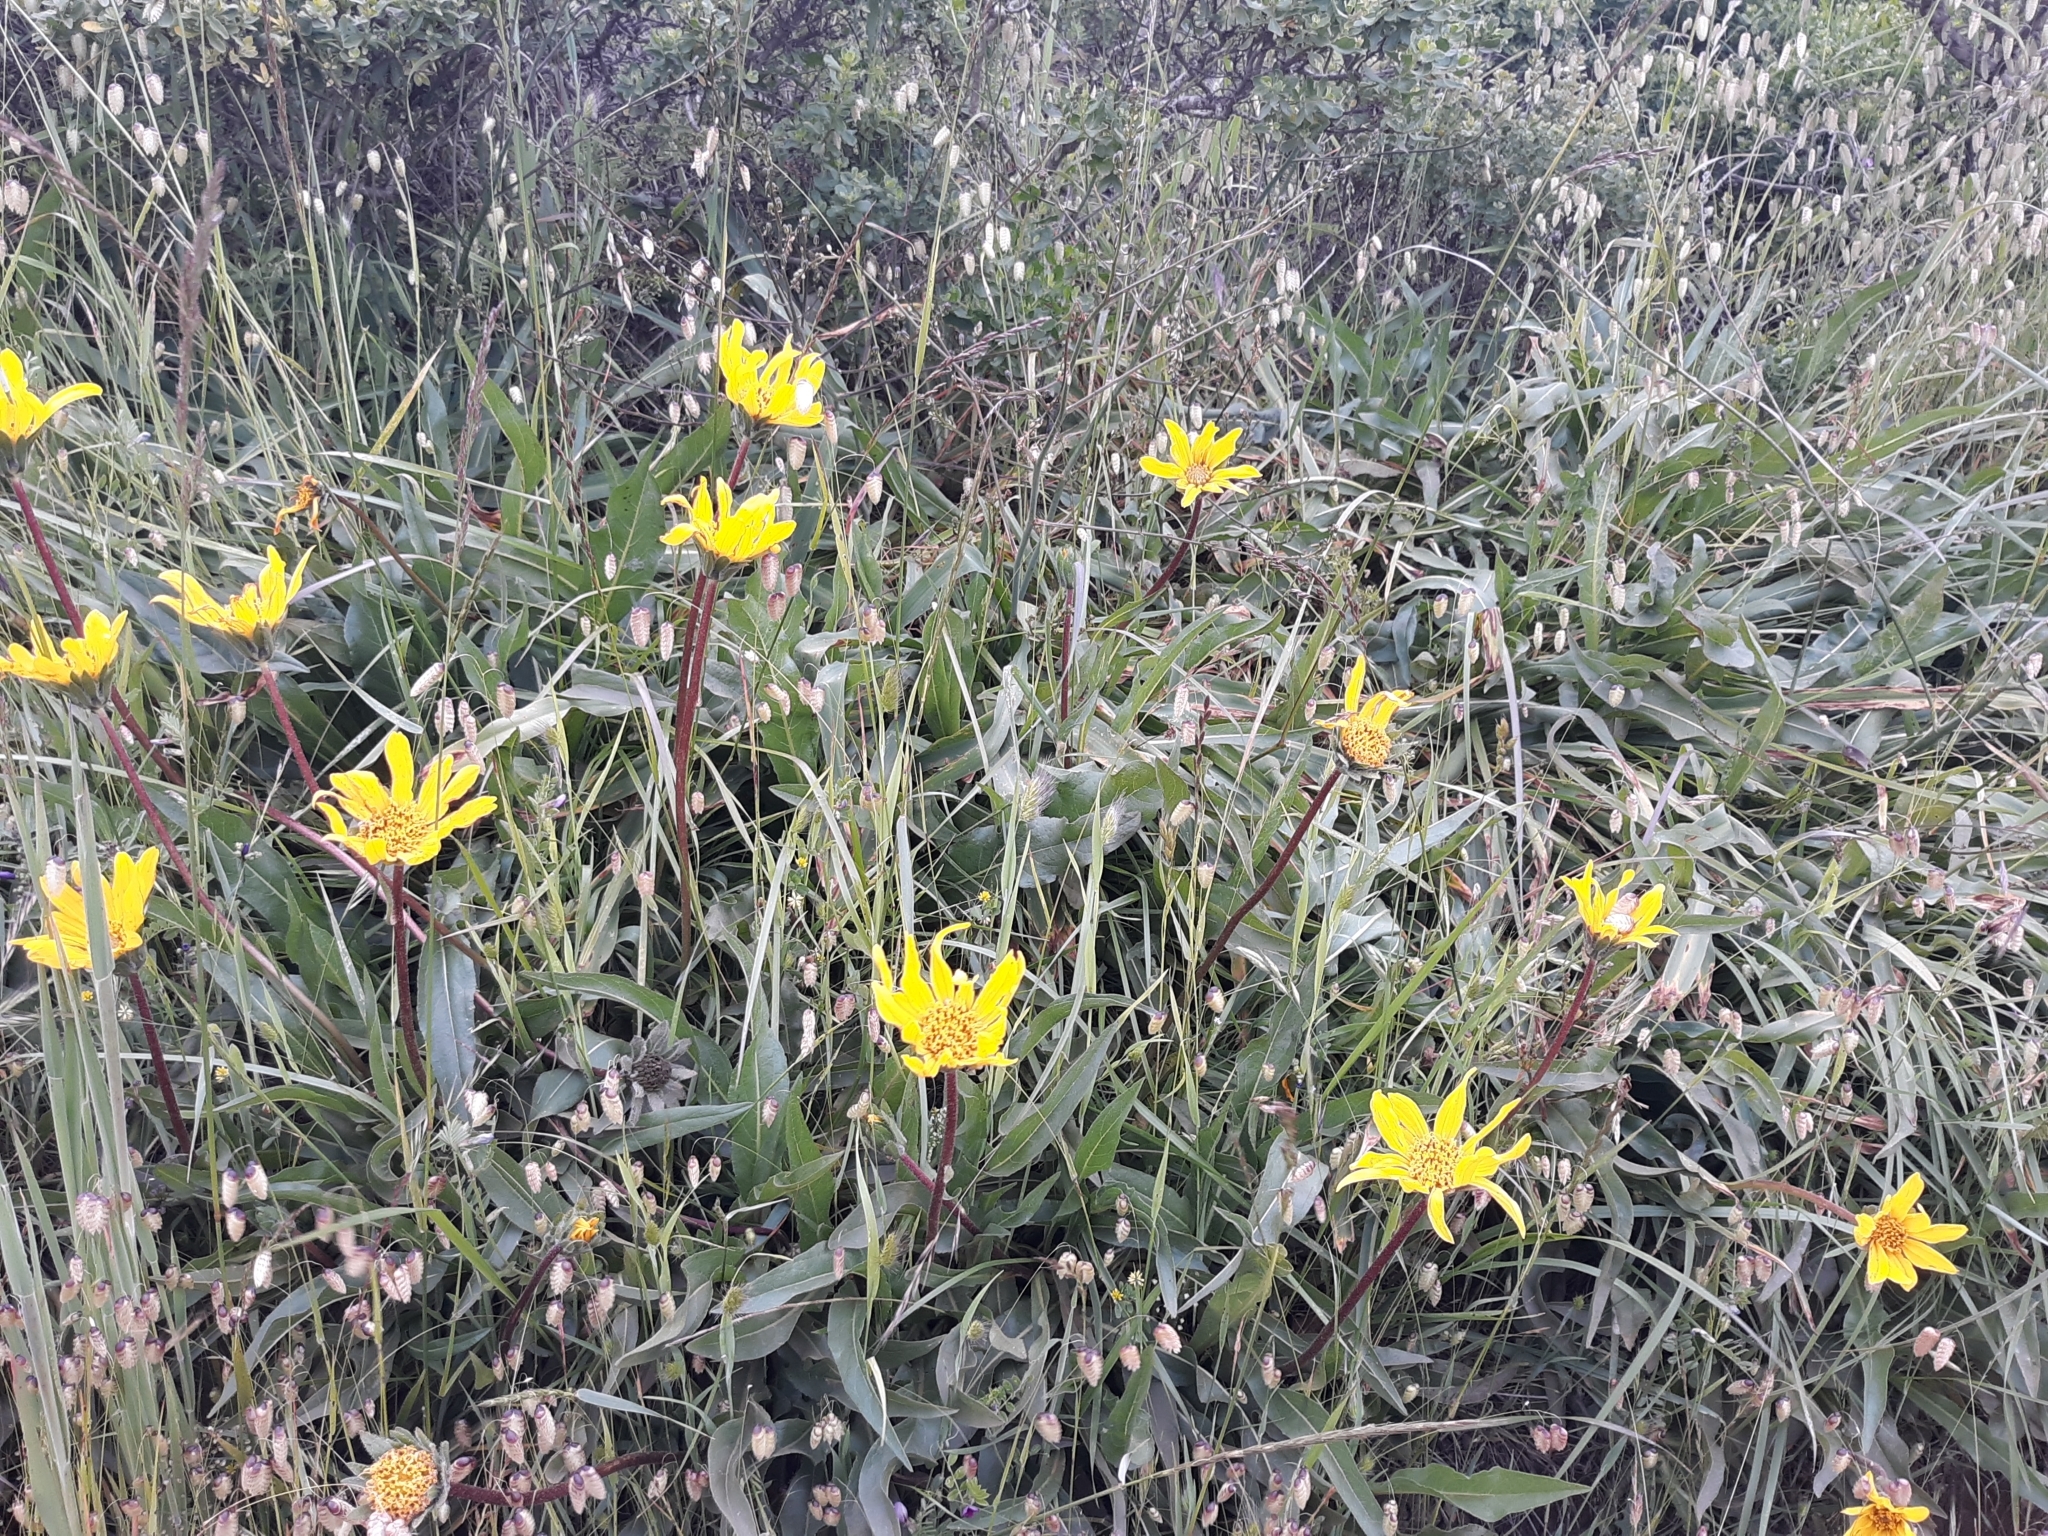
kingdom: Plantae
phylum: Tracheophyta
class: Magnoliopsida
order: Asterales
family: Asteraceae
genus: Wyethia
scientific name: Wyethia angustifolia
